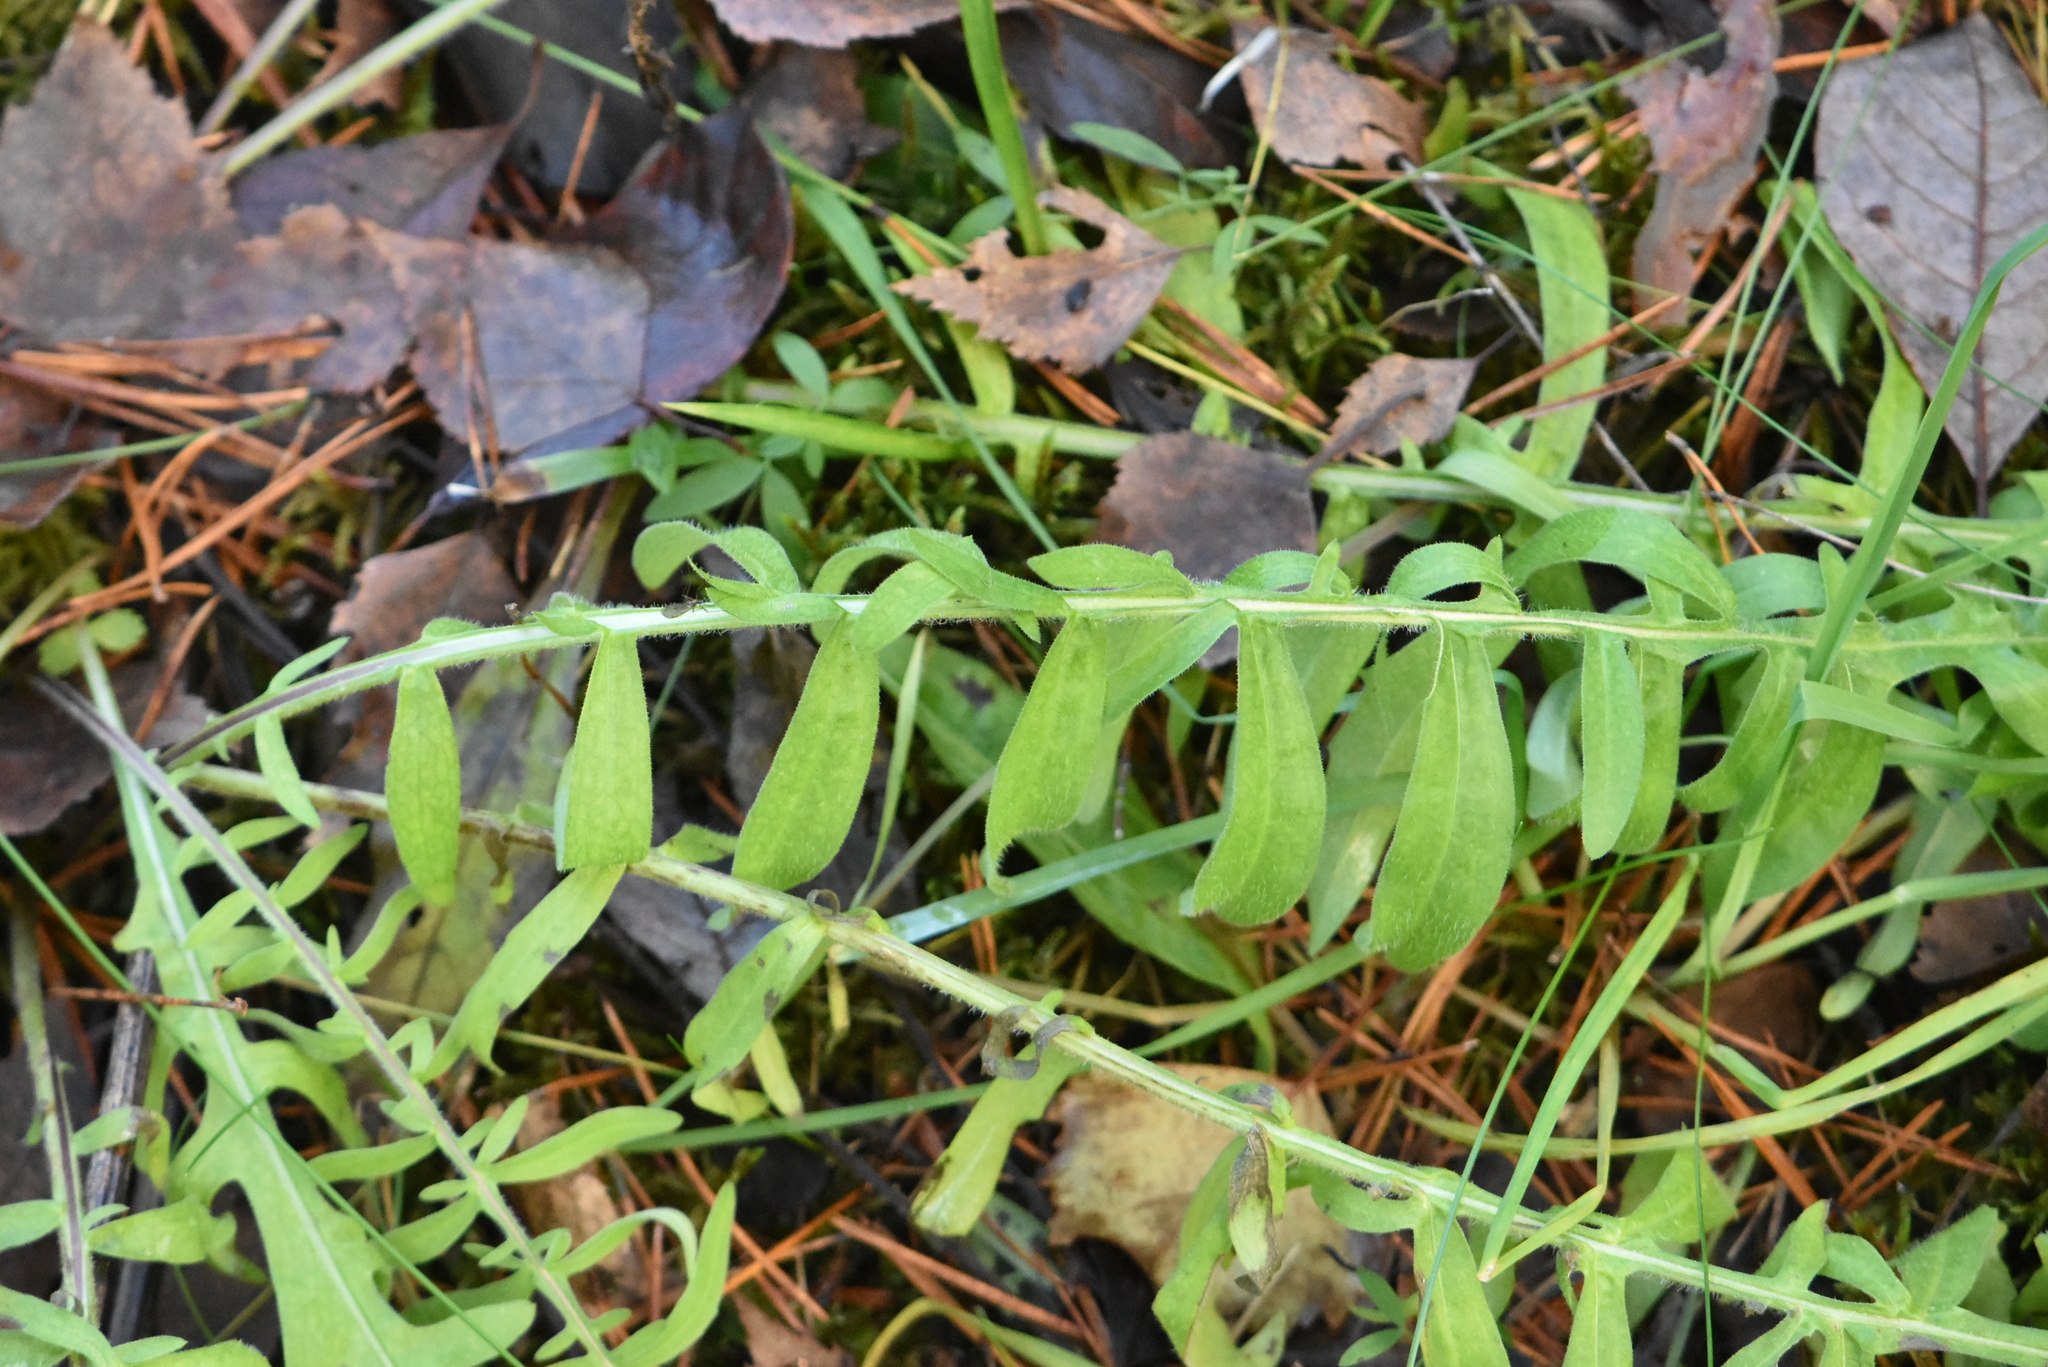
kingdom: Plantae
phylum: Tracheophyta
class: Magnoliopsida
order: Asterales
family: Asteraceae
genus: Centaurea
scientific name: Centaurea scabiosa
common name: Greater knapweed
